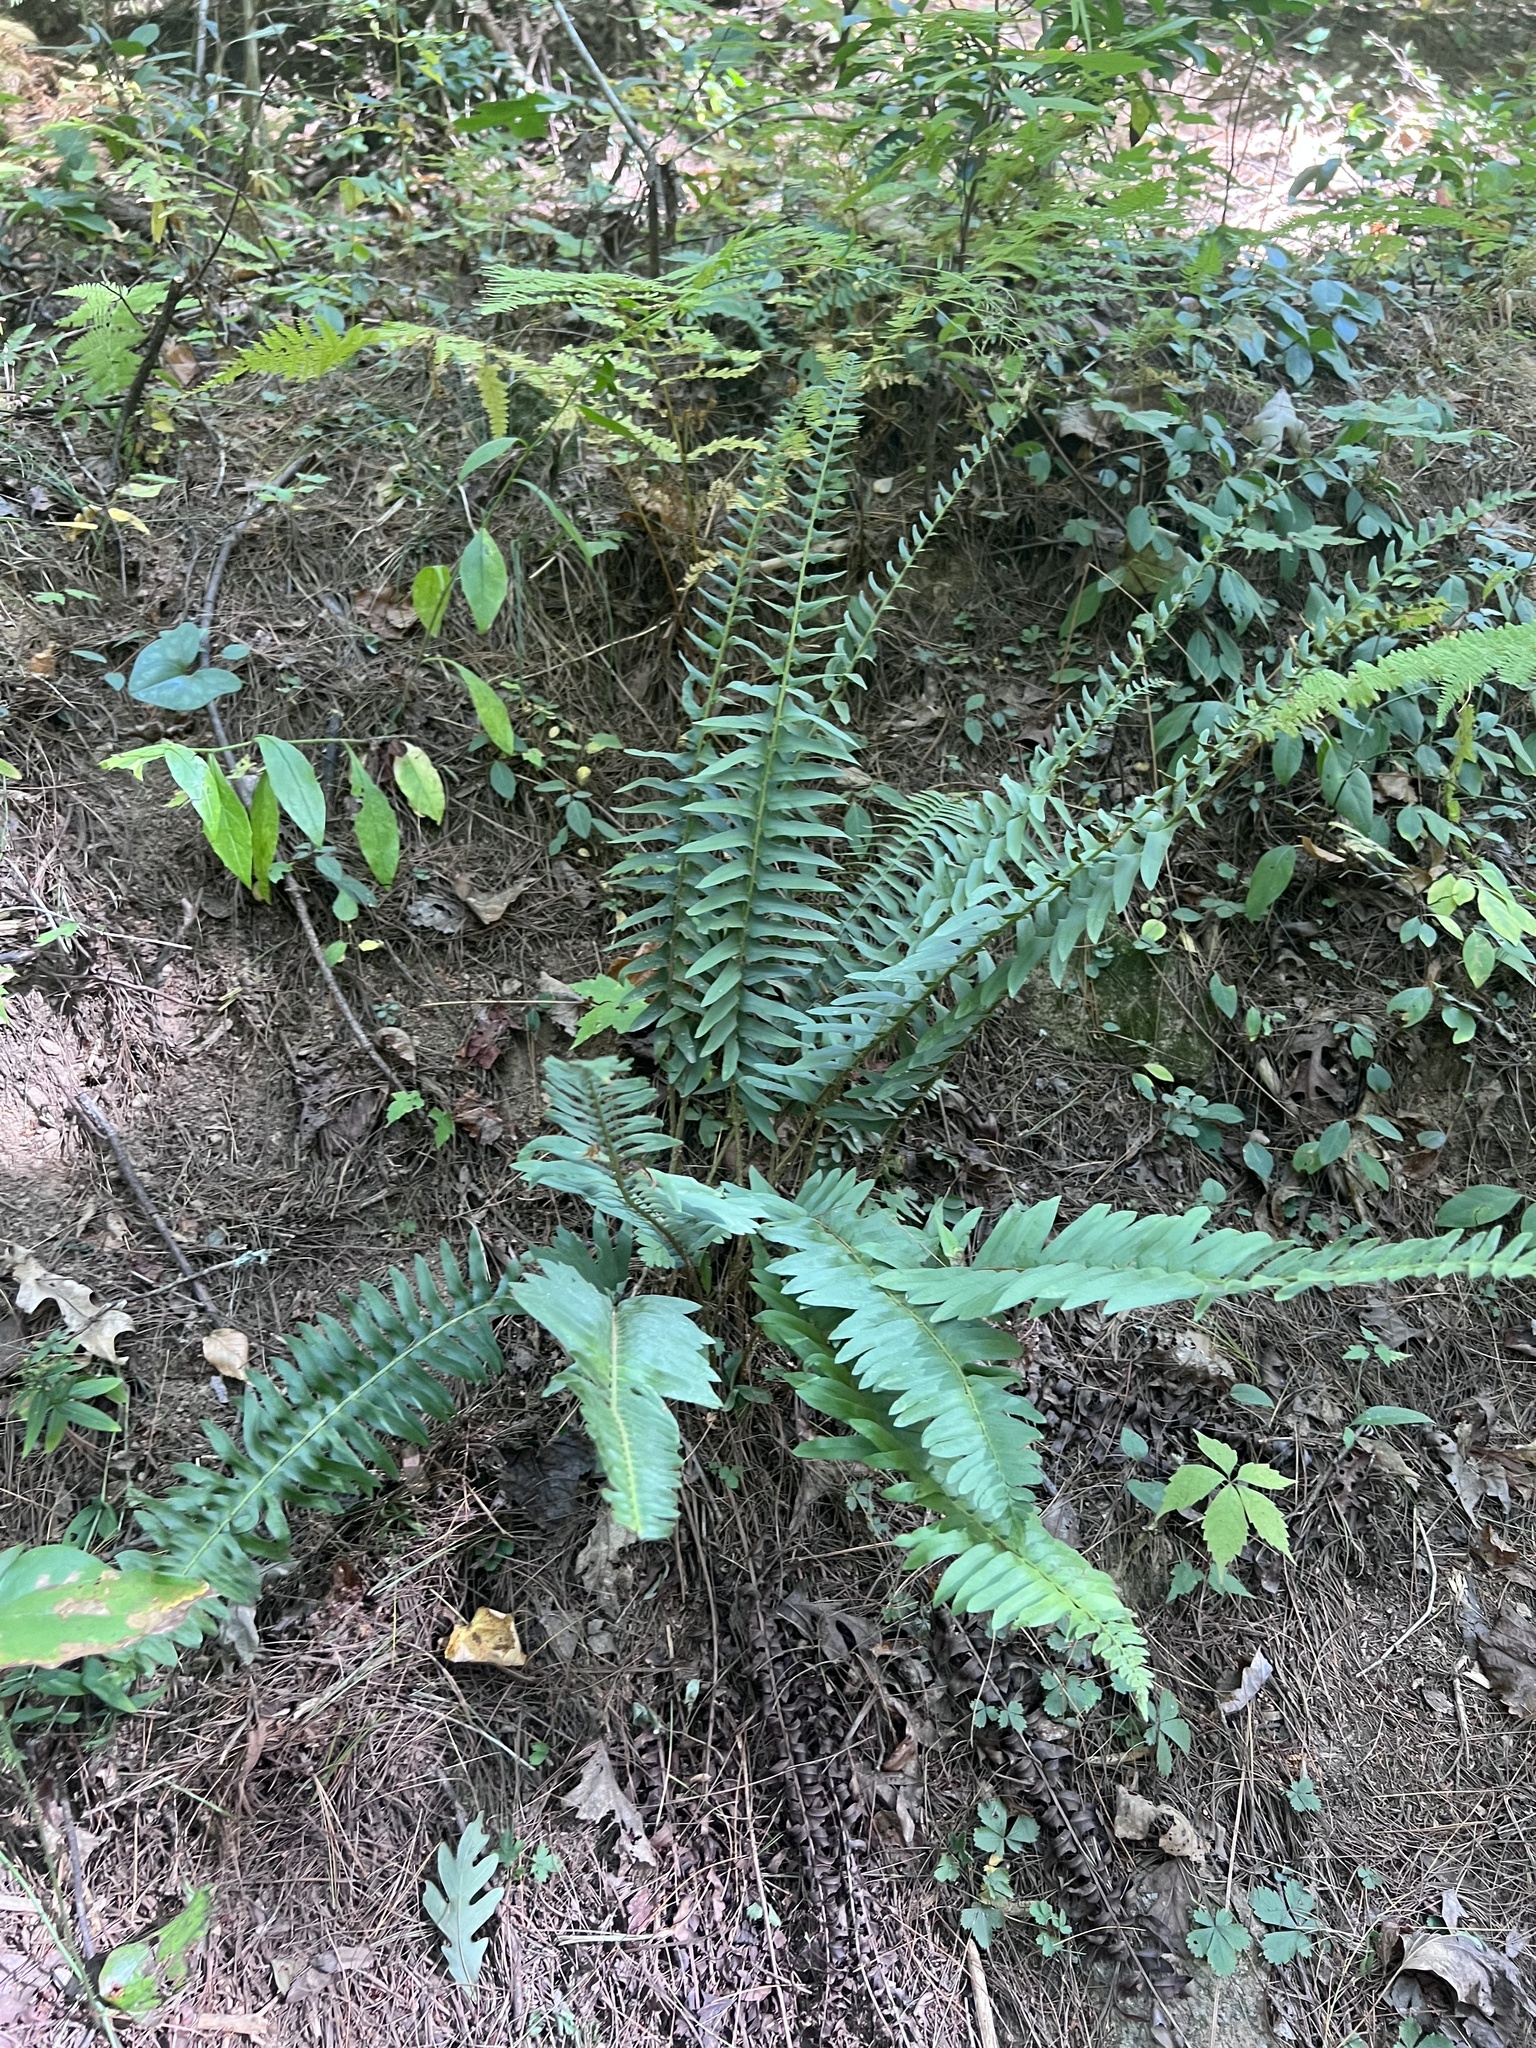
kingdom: Plantae
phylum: Tracheophyta
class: Polypodiopsida
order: Polypodiales
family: Dryopteridaceae
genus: Polystichum
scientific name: Polystichum acrostichoides
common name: Christmas fern
